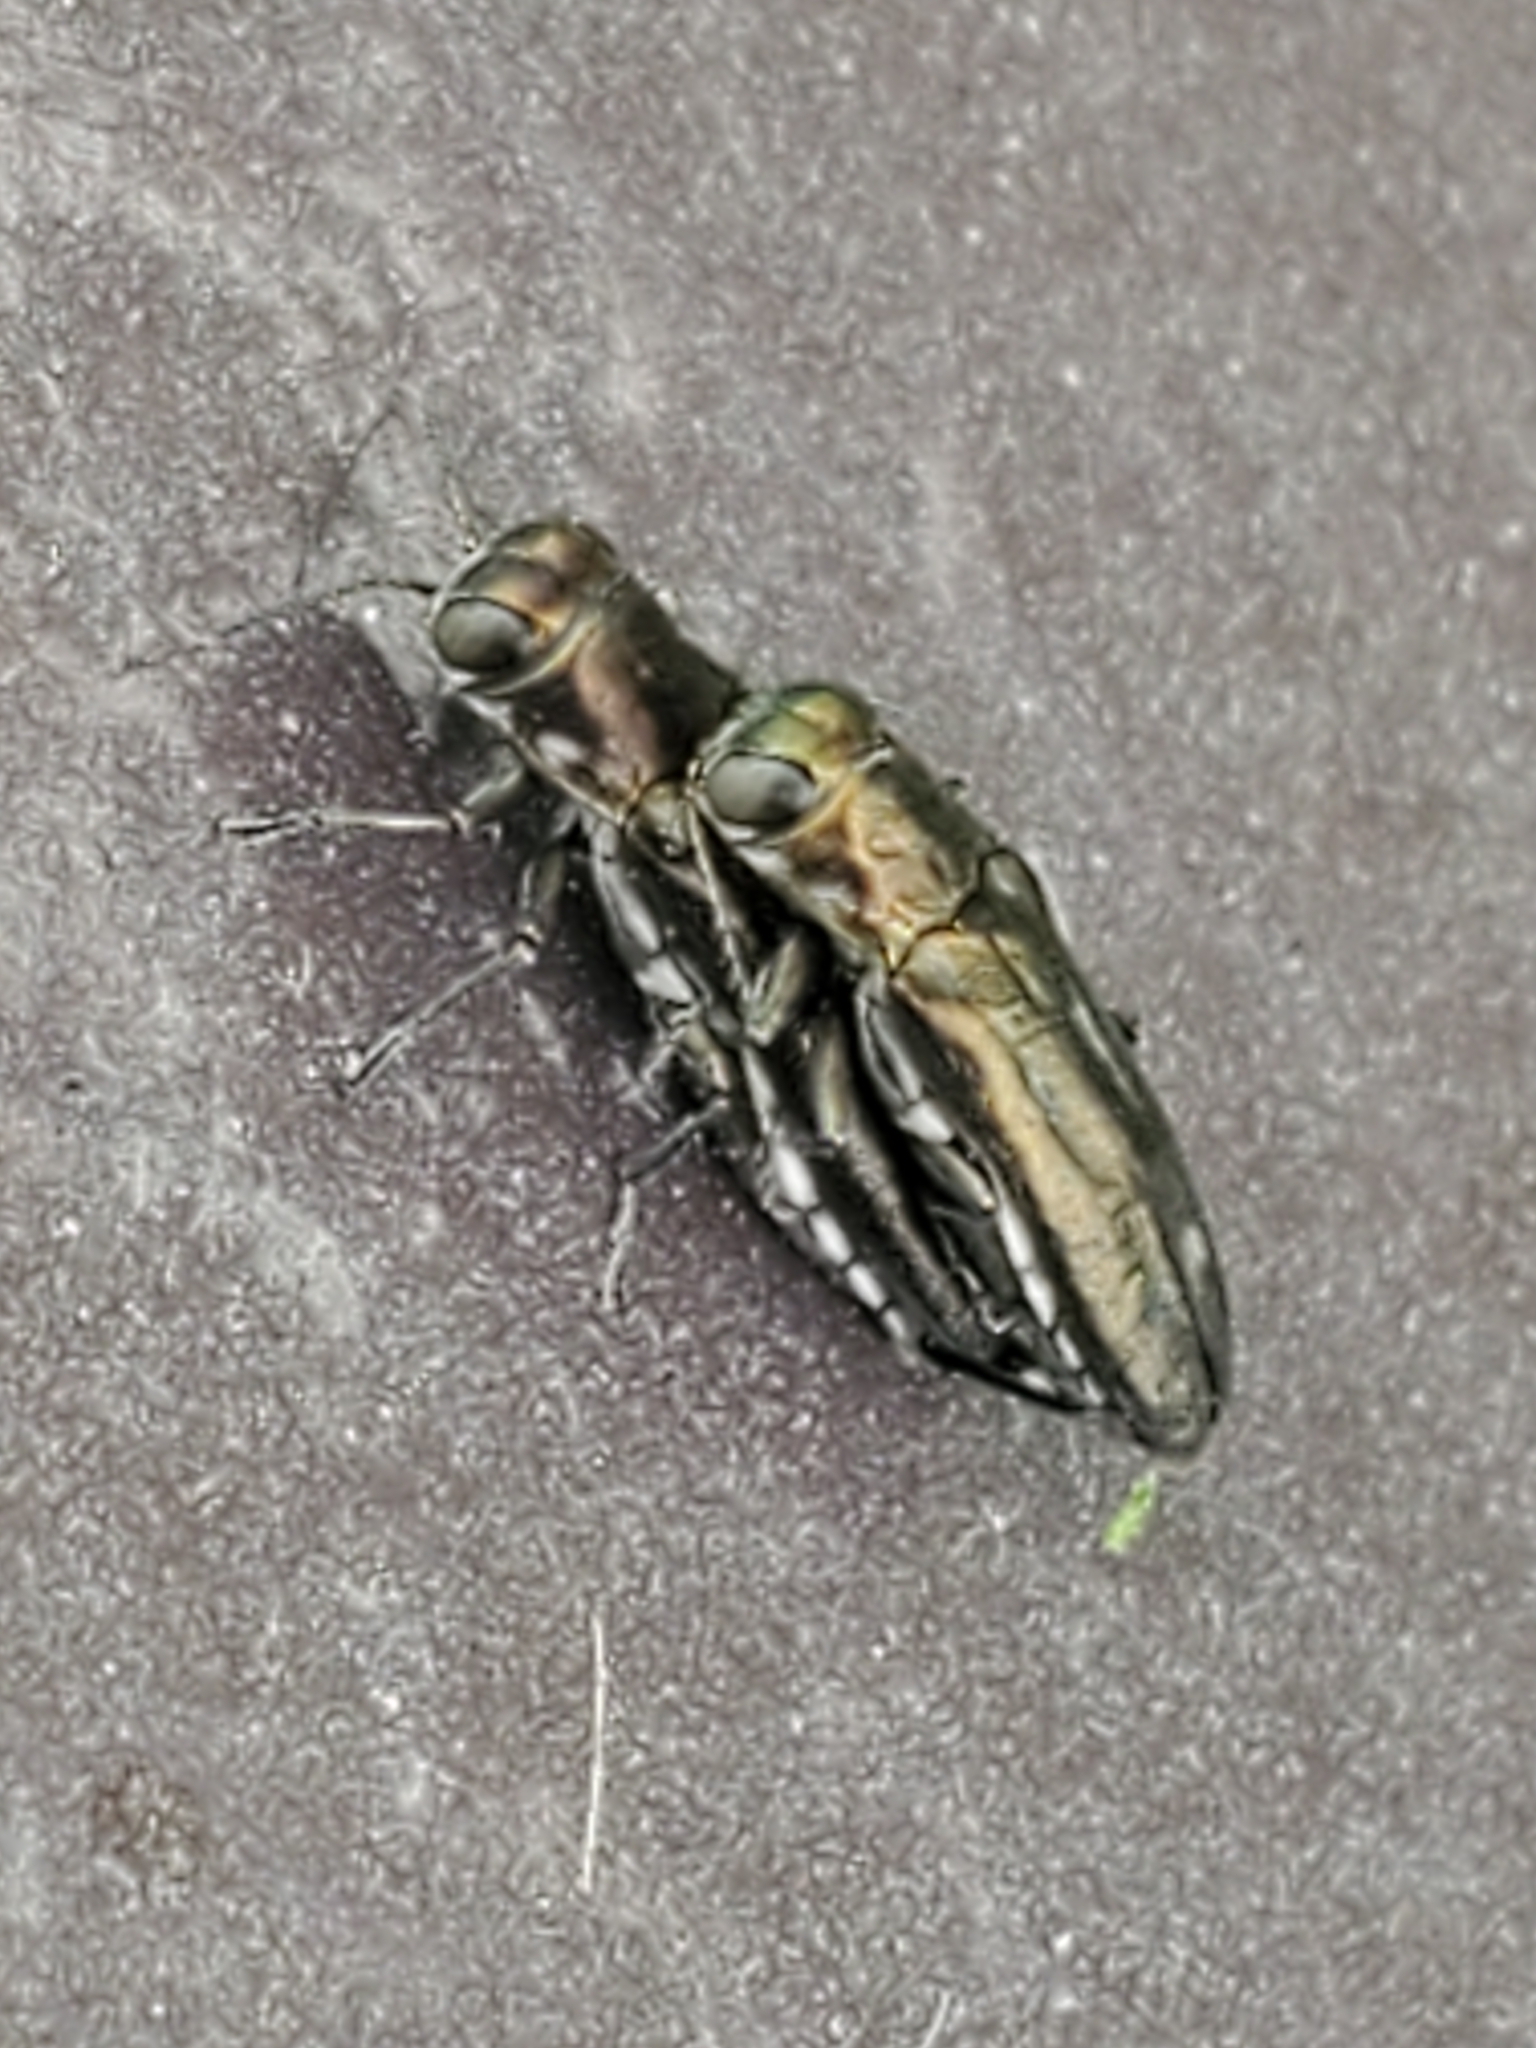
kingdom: Animalia
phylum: Arthropoda
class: Insecta
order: Coleoptera
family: Buprestidae
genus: Agrilus
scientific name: Agrilus impexus
